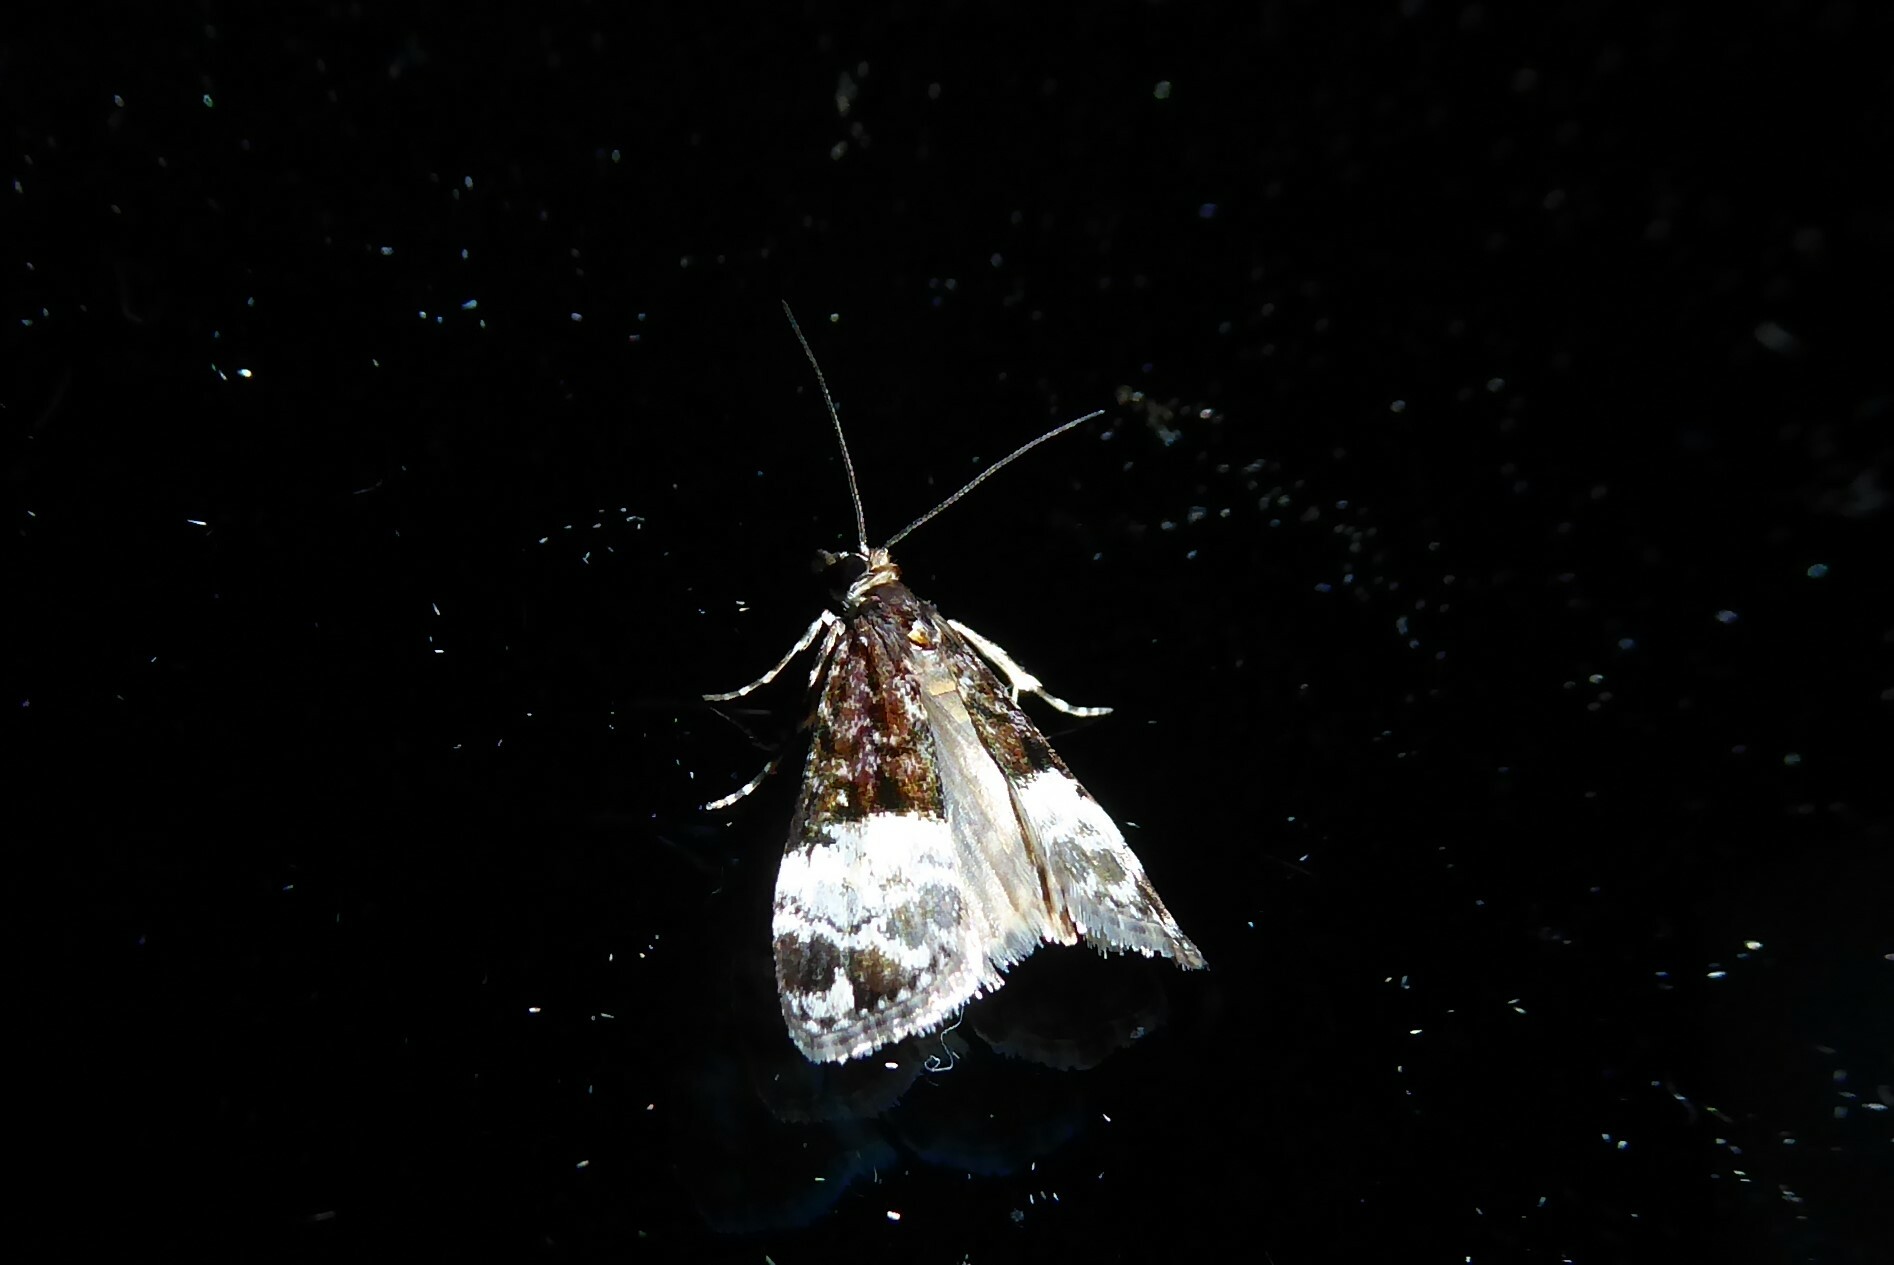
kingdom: Animalia
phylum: Arthropoda
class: Insecta
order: Lepidoptera
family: Crambidae
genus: Scoparia
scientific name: Scoparia minusculalis
